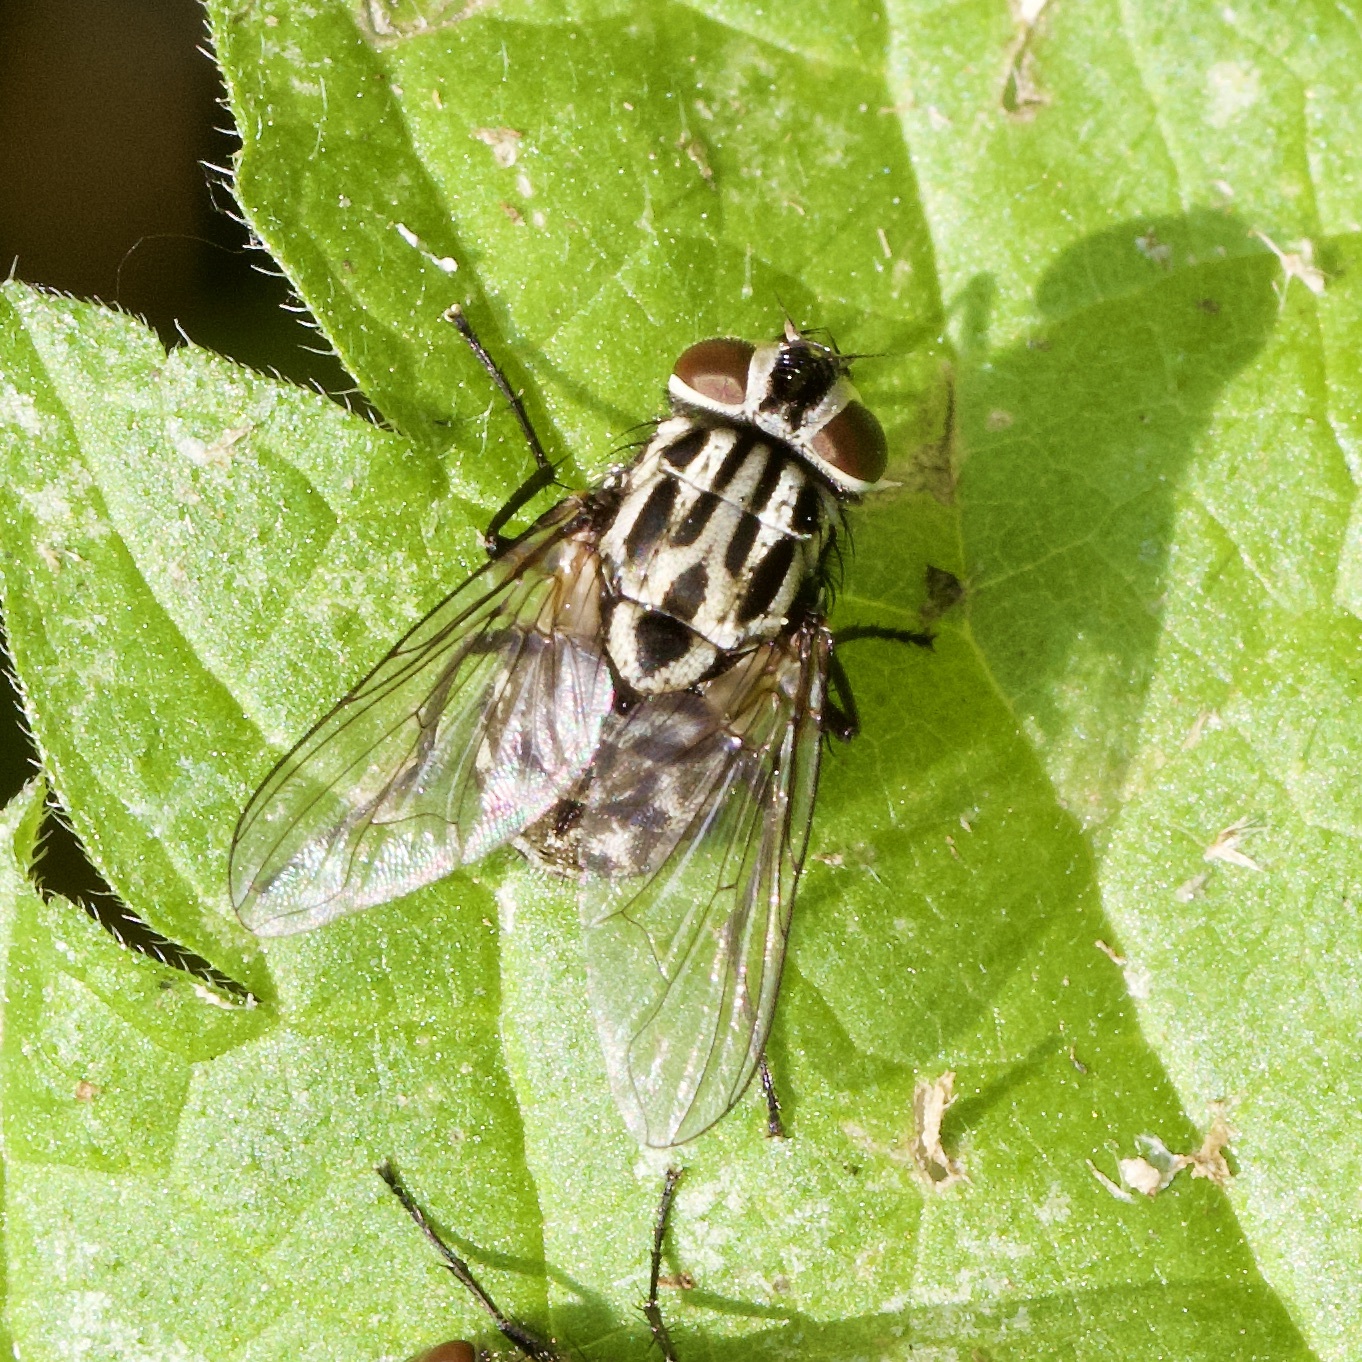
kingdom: Animalia
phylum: Arthropoda
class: Insecta
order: Diptera
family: Muscidae
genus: Graphomya
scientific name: Graphomya maculata
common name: Muscid fly
